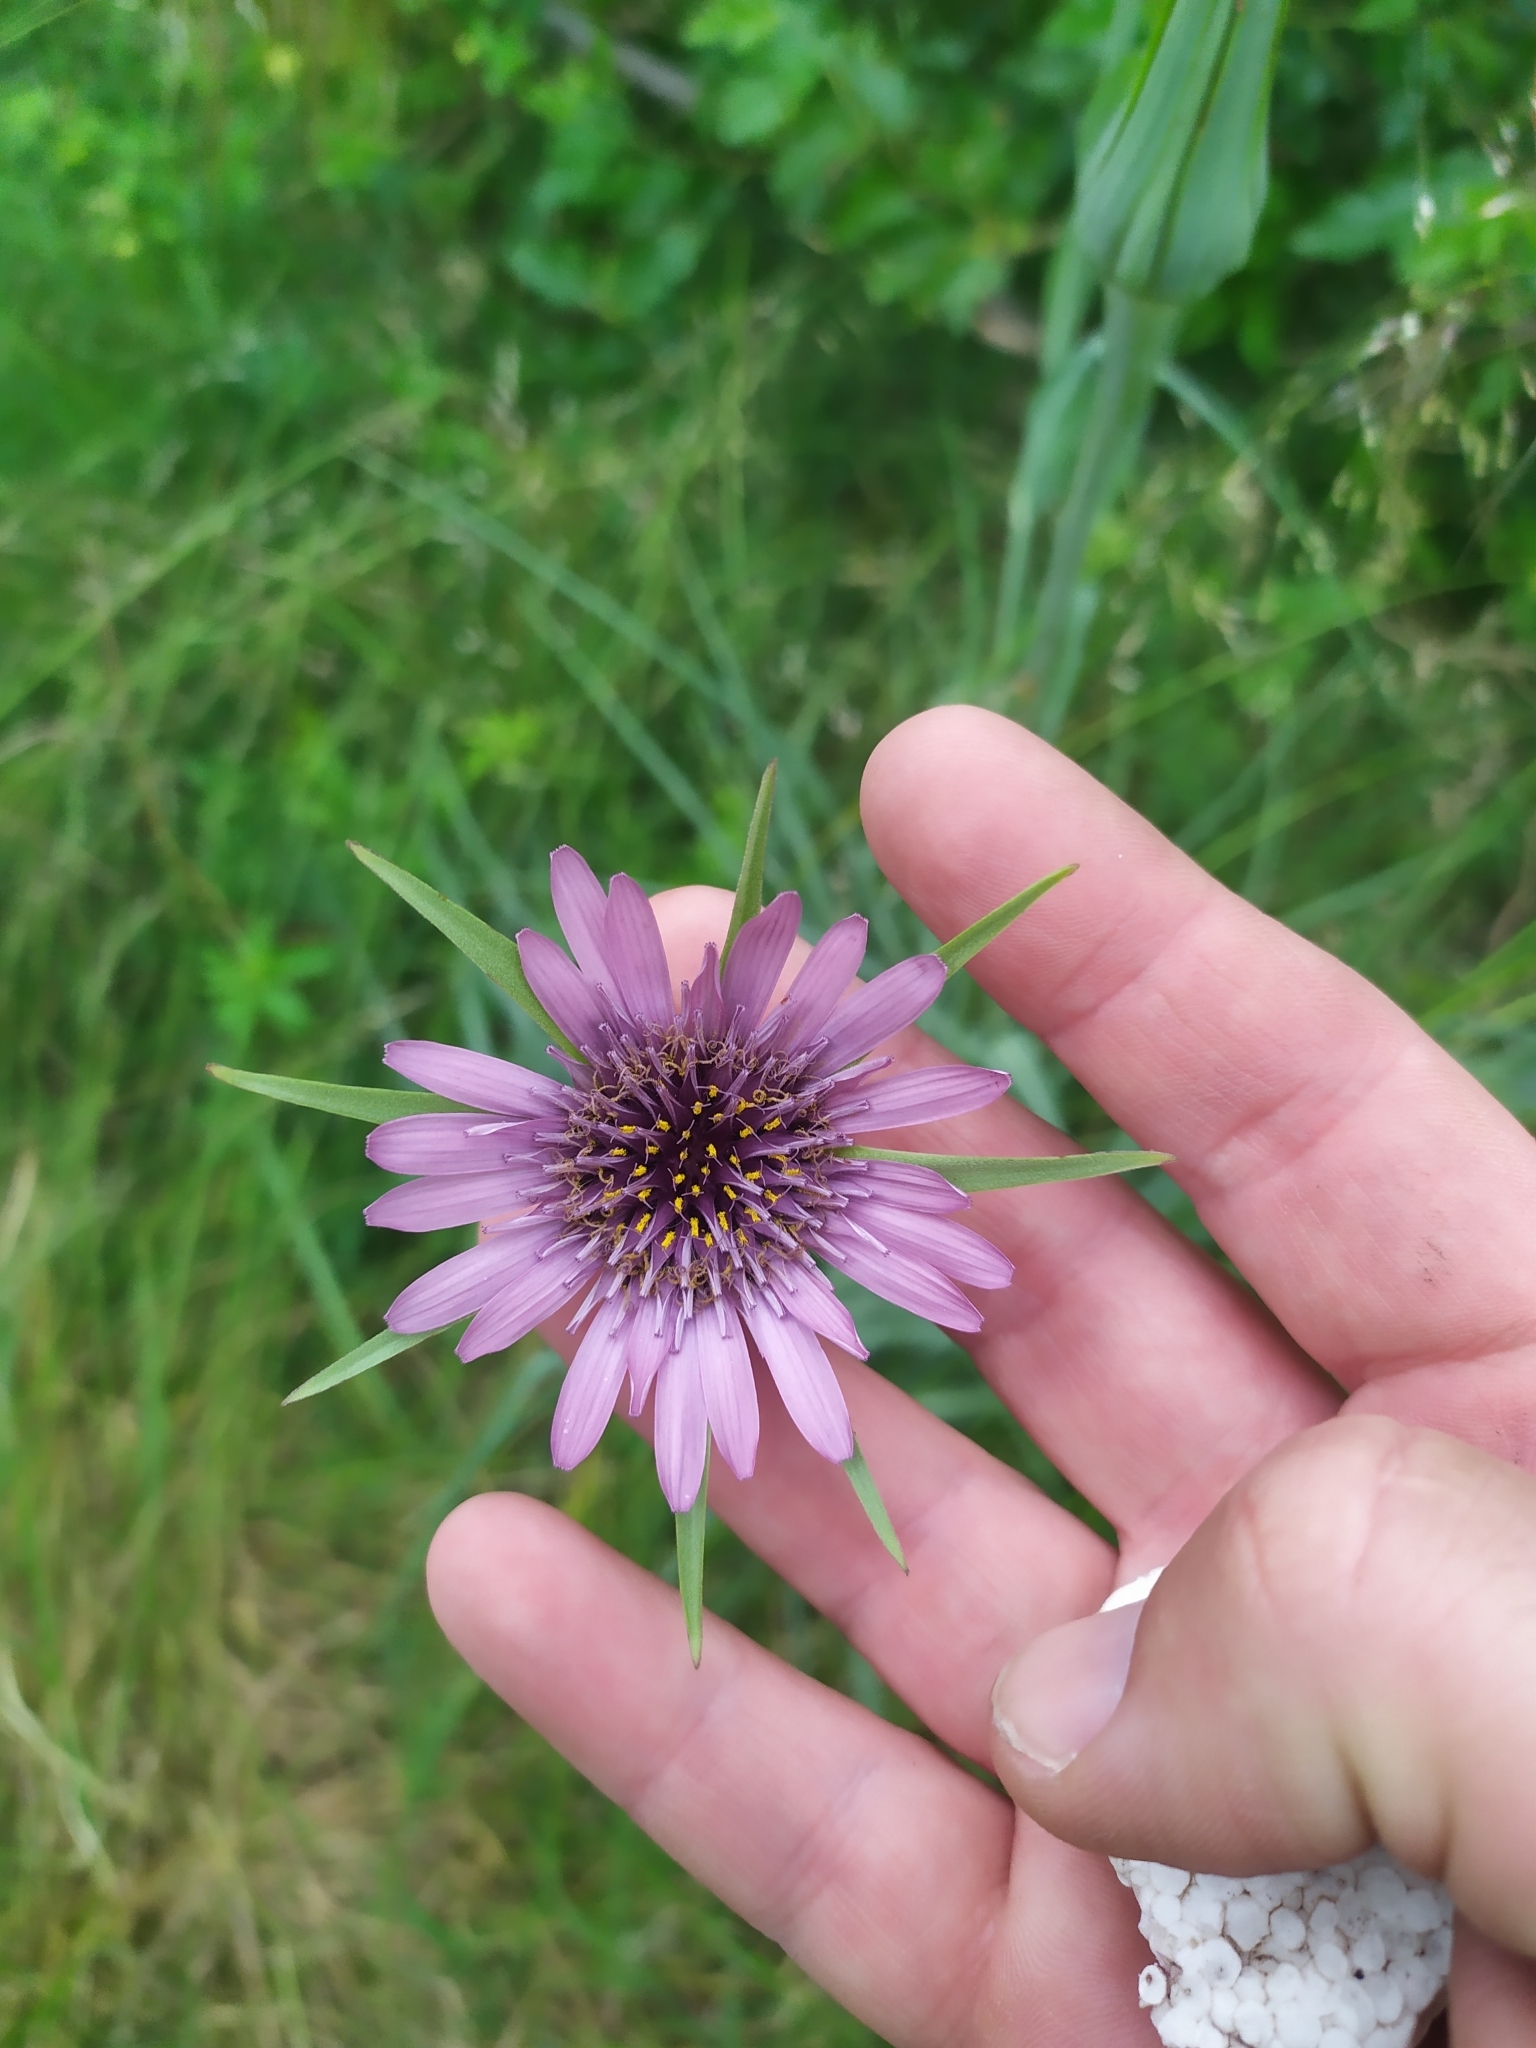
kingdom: Plantae
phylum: Tracheophyta
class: Magnoliopsida
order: Asterales
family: Asteraceae
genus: Tragopogon
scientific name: Tragopogon porrifolius
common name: Salsify
